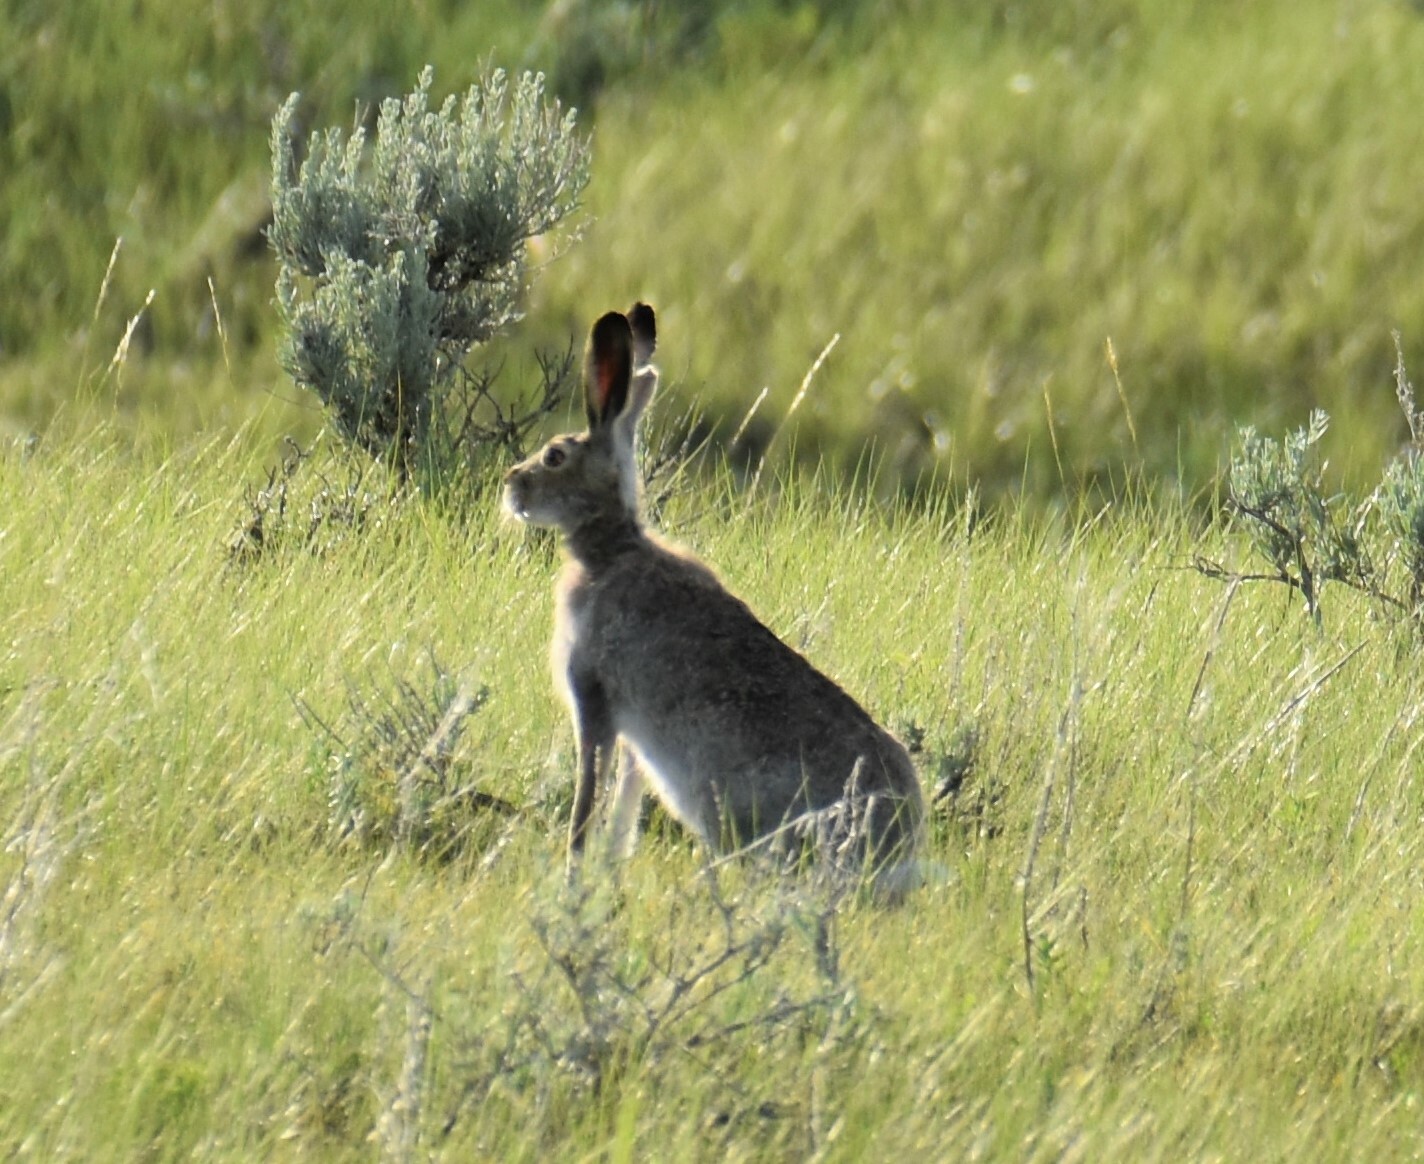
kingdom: Animalia
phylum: Chordata
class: Mammalia
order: Lagomorpha
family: Leporidae
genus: Lepus
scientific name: Lepus townsendii
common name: White-tailed jackrabbit
